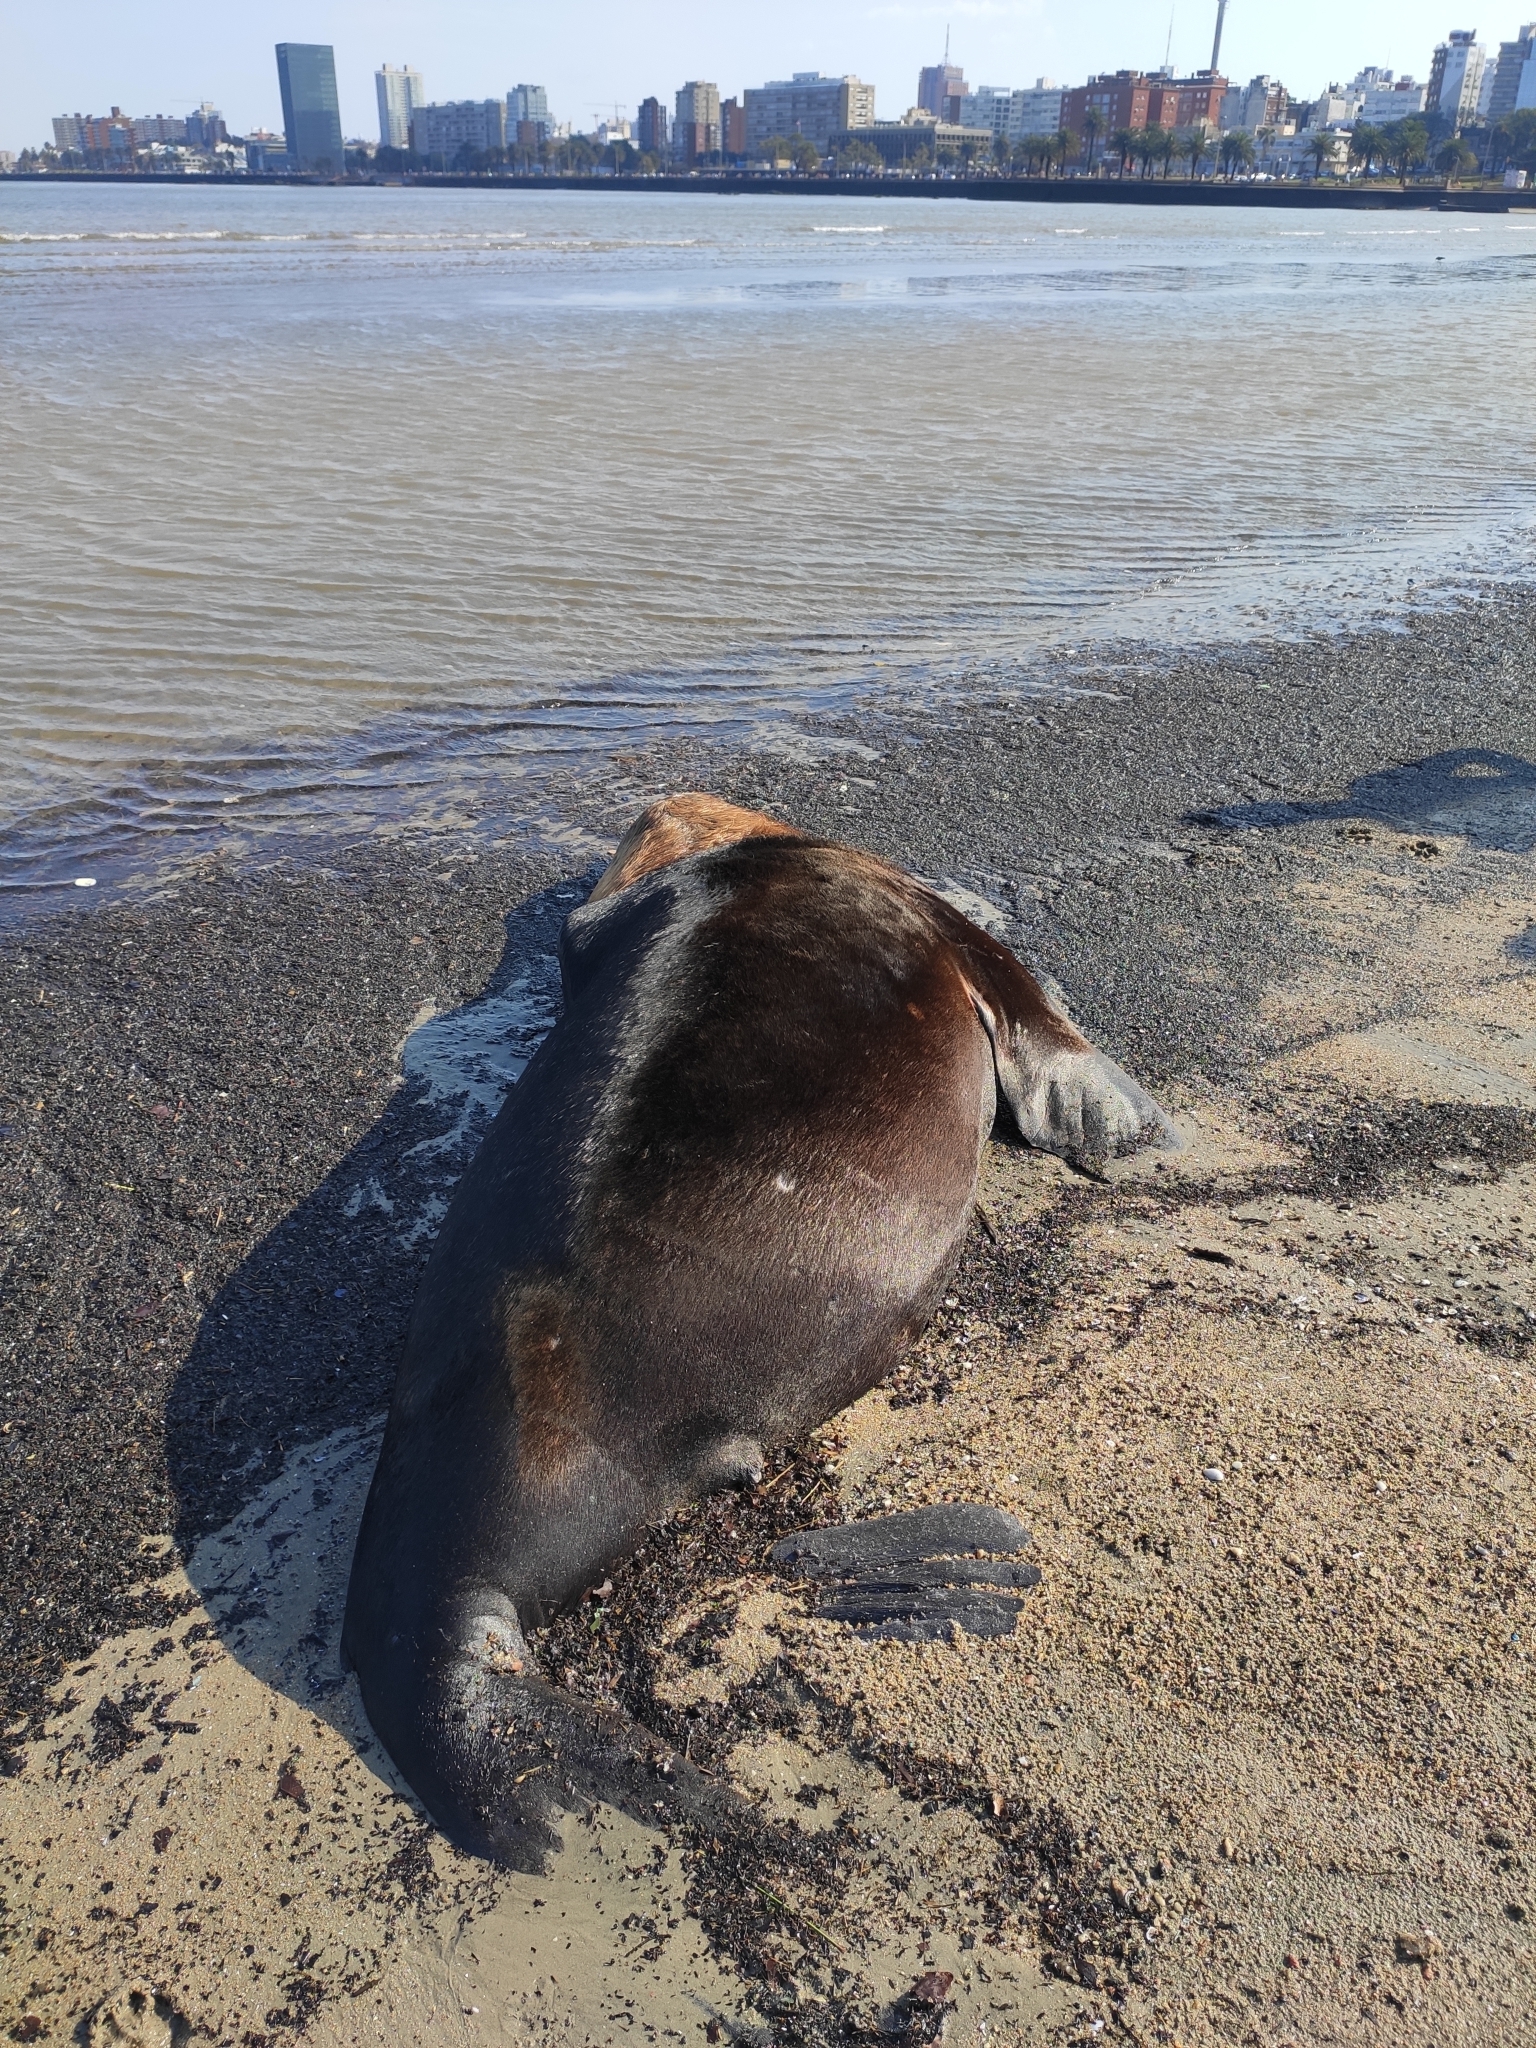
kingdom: Animalia
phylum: Chordata
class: Mammalia
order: Carnivora
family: Otariidae
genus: Otaria
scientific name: Otaria byronia
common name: South american sea lion
